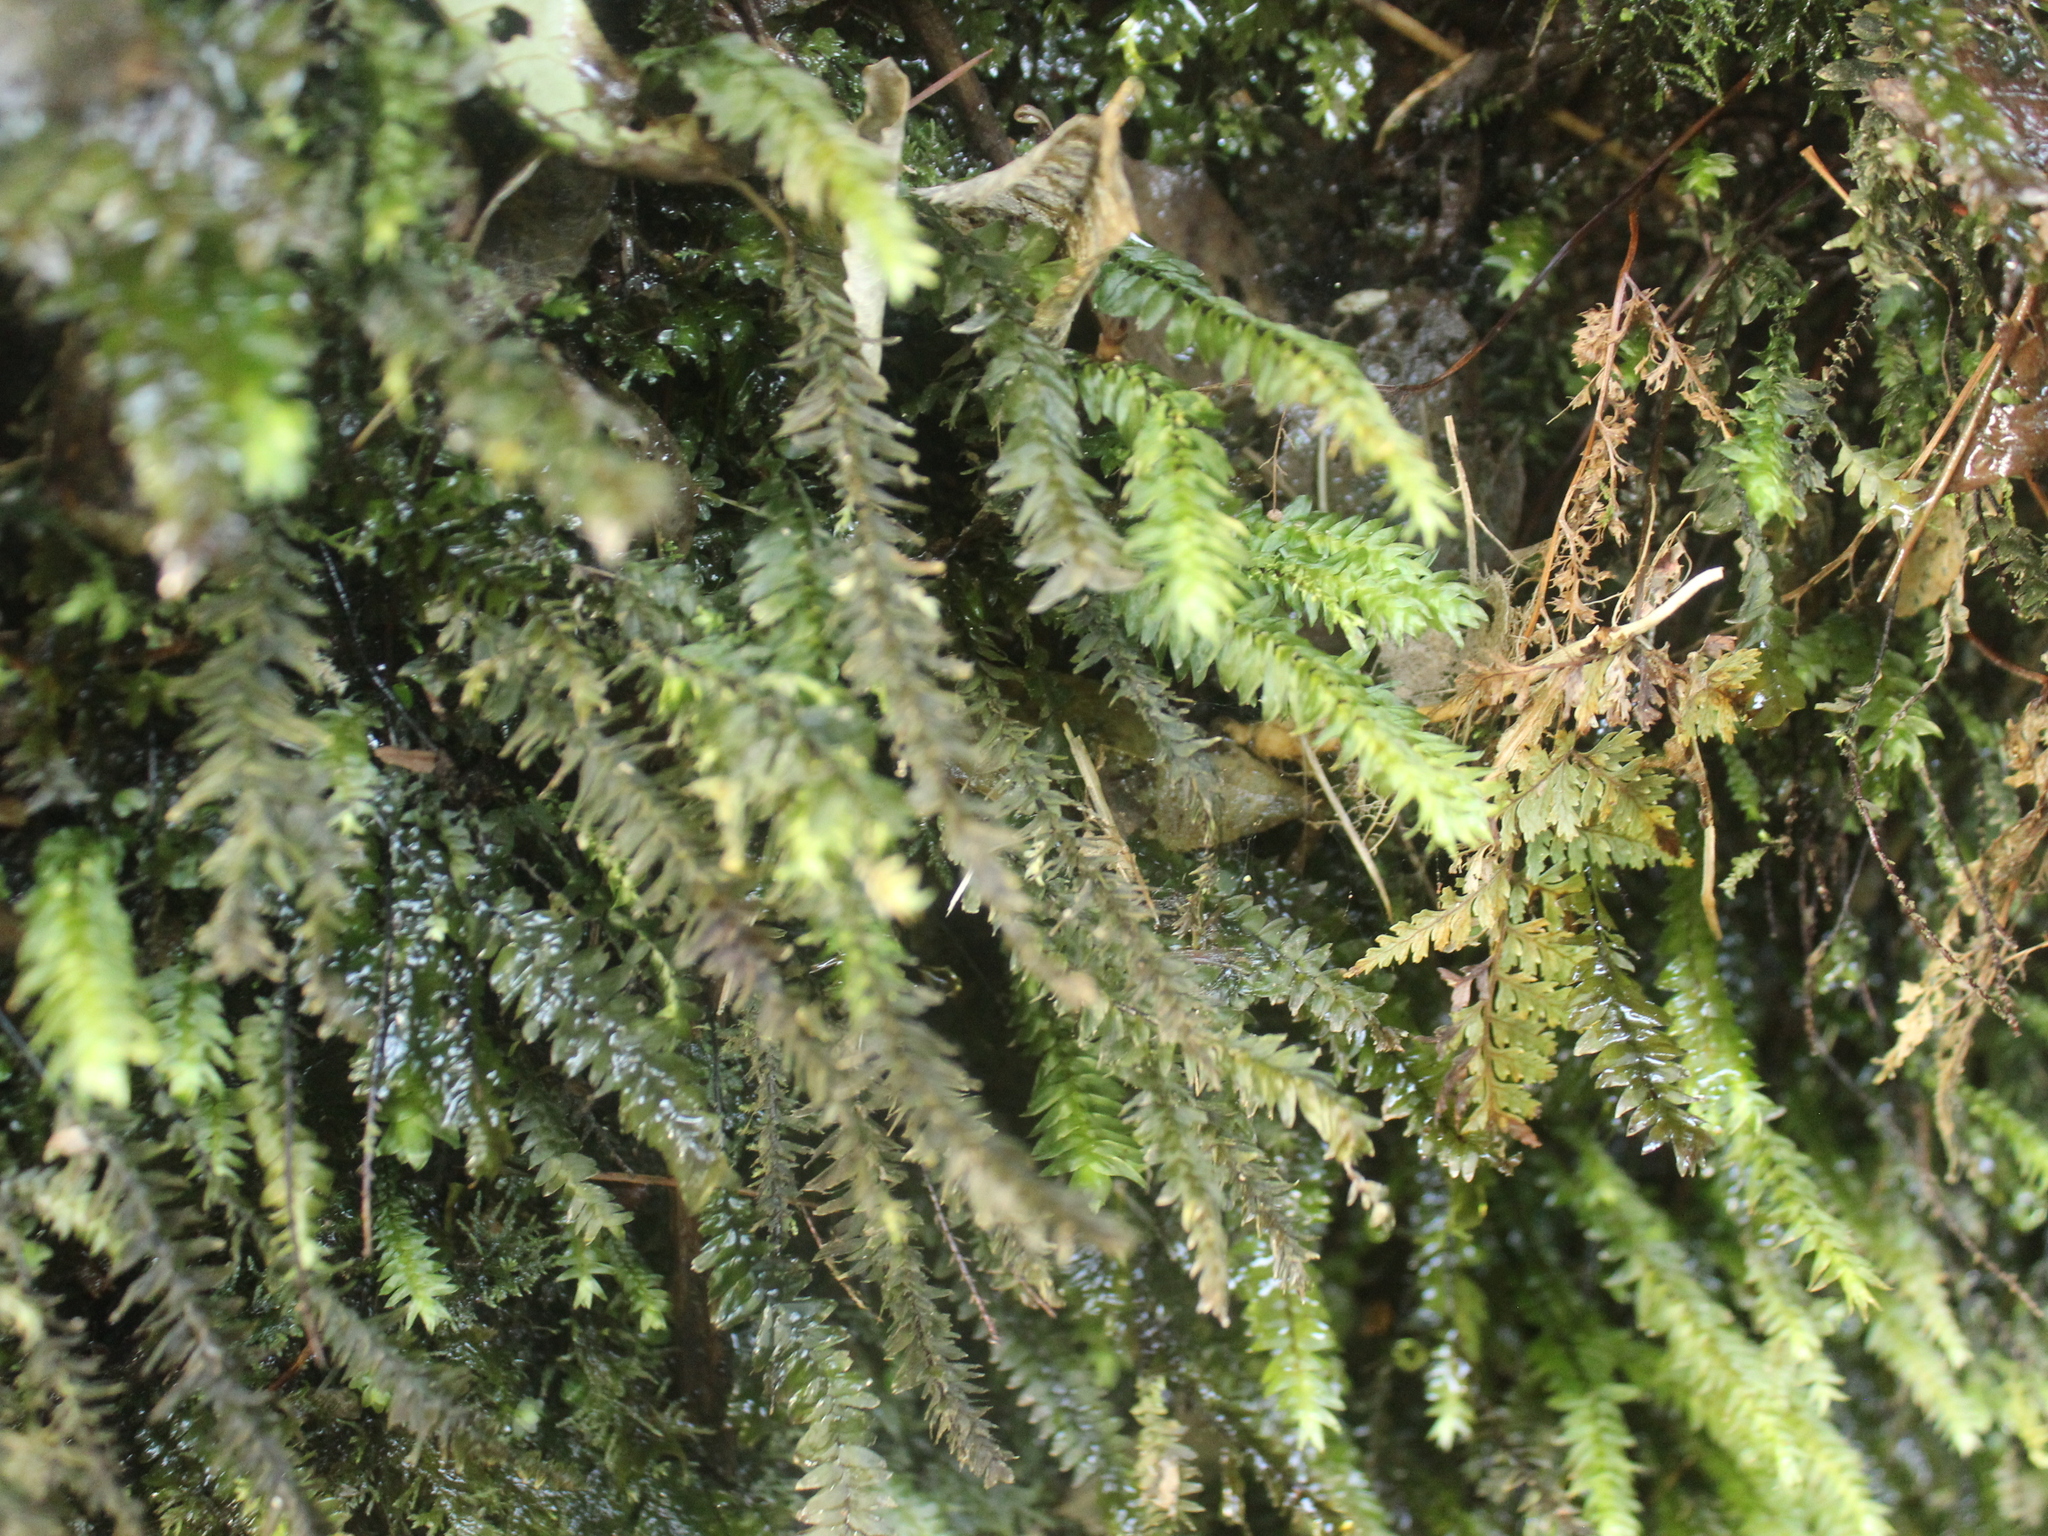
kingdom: Plantae
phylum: Bryophyta
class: Bryopsida
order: Hypopterygiales
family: Hypopterygiaceae
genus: Cyathophorum
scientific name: Cyathophorum bulbosum
